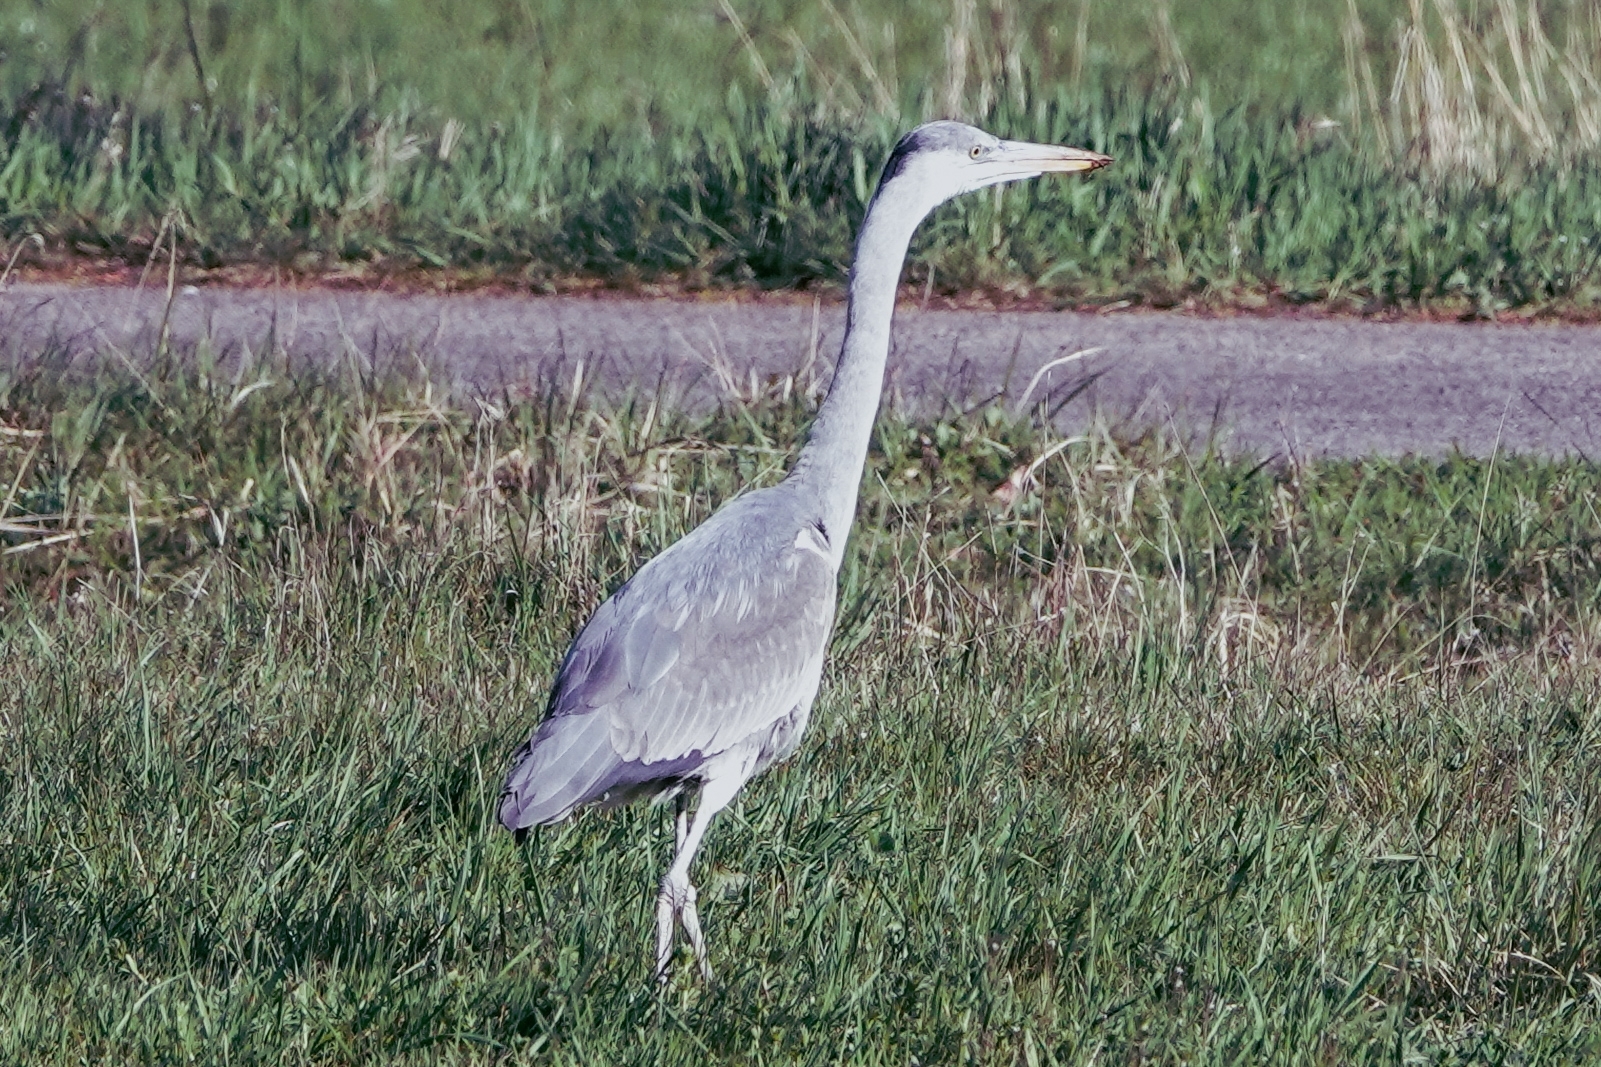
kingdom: Animalia
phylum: Chordata
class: Aves
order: Pelecaniformes
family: Ardeidae
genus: Ardea
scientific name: Ardea cinerea
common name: Grey heron
